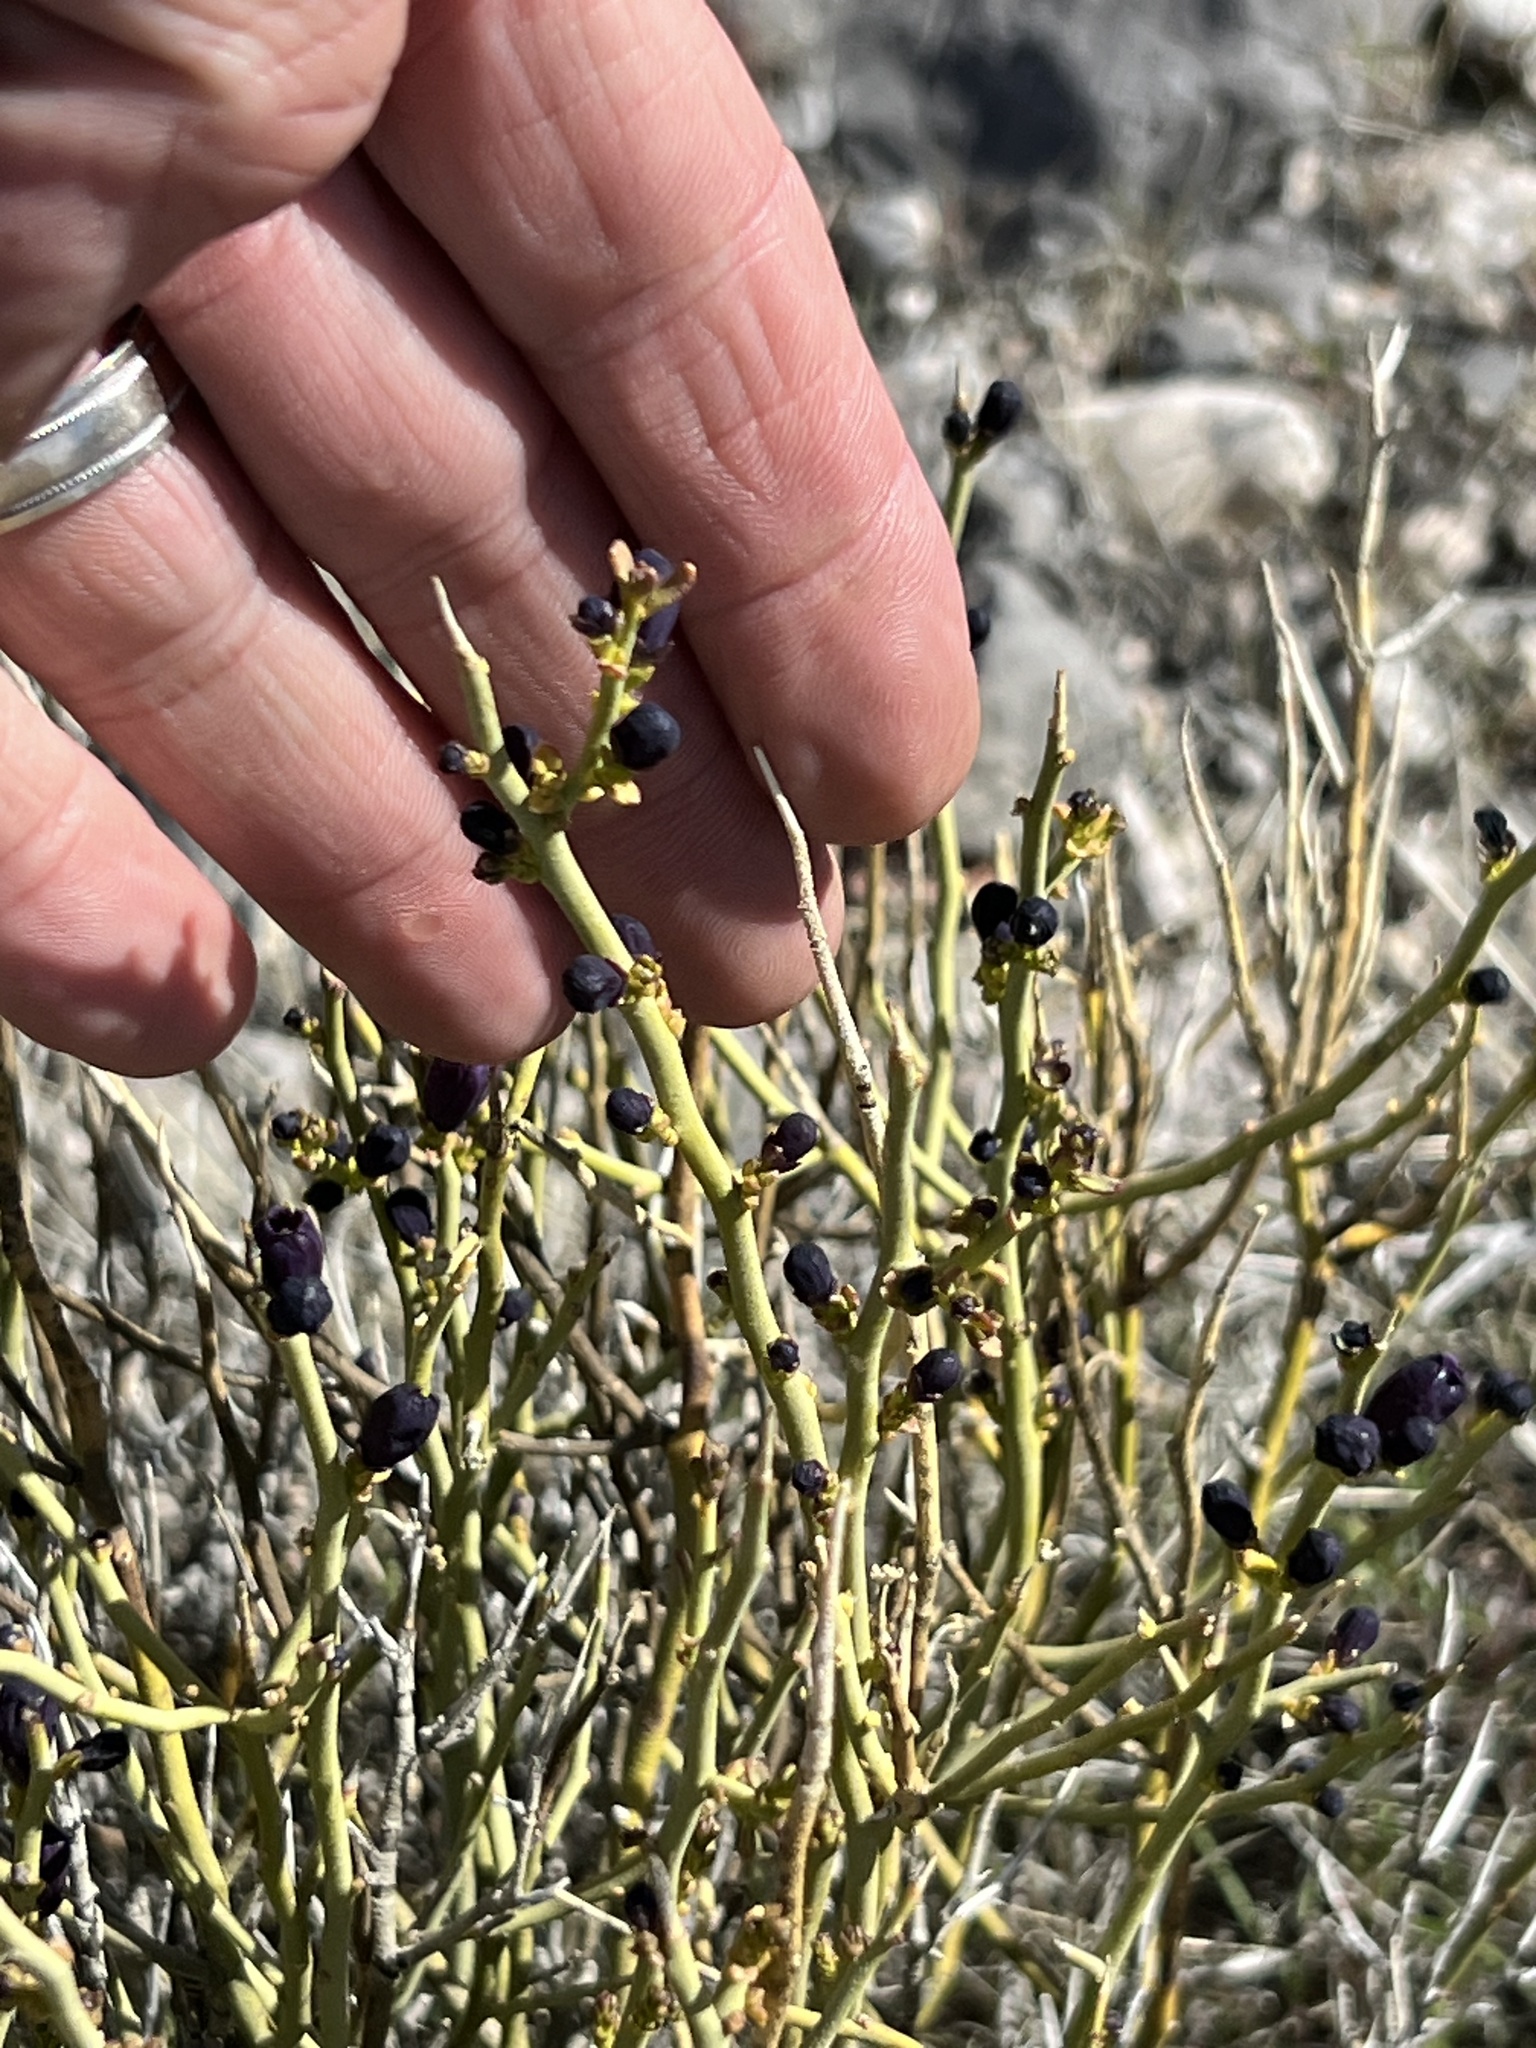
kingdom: Plantae
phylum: Tracheophyta
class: Magnoliopsida
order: Sapindales
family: Rutaceae
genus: Thamnosma
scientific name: Thamnosma montana
